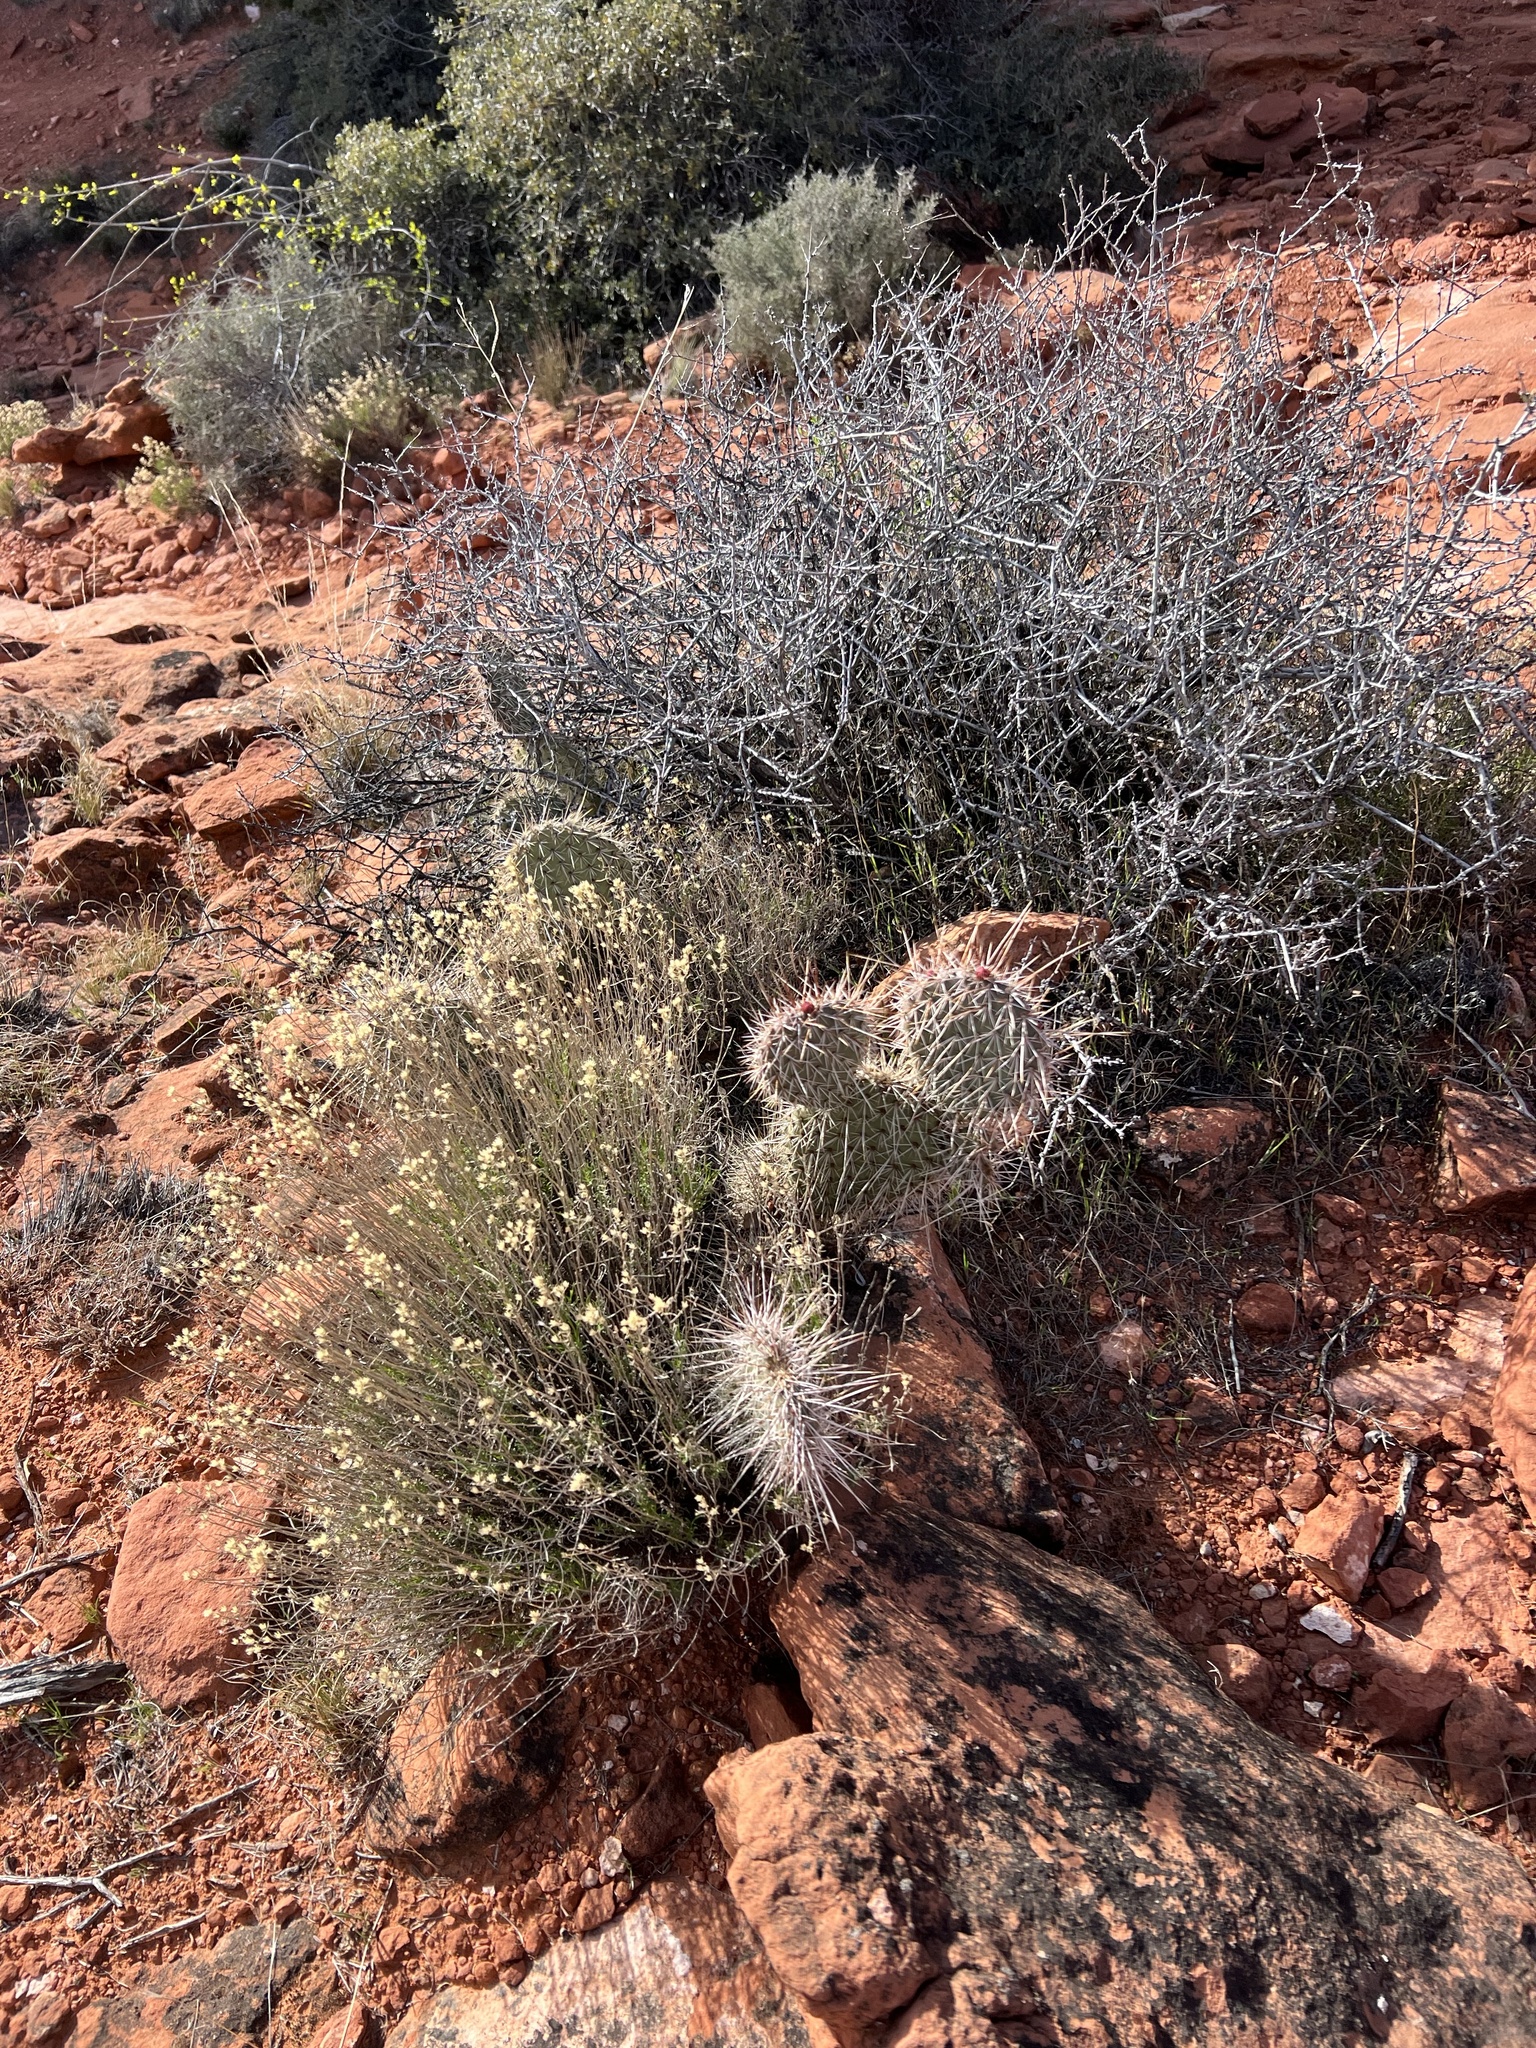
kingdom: Plantae
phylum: Tracheophyta
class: Magnoliopsida
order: Caryophyllales
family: Cactaceae
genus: Opuntia
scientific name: Opuntia polyacantha
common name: Plains prickly-pear
